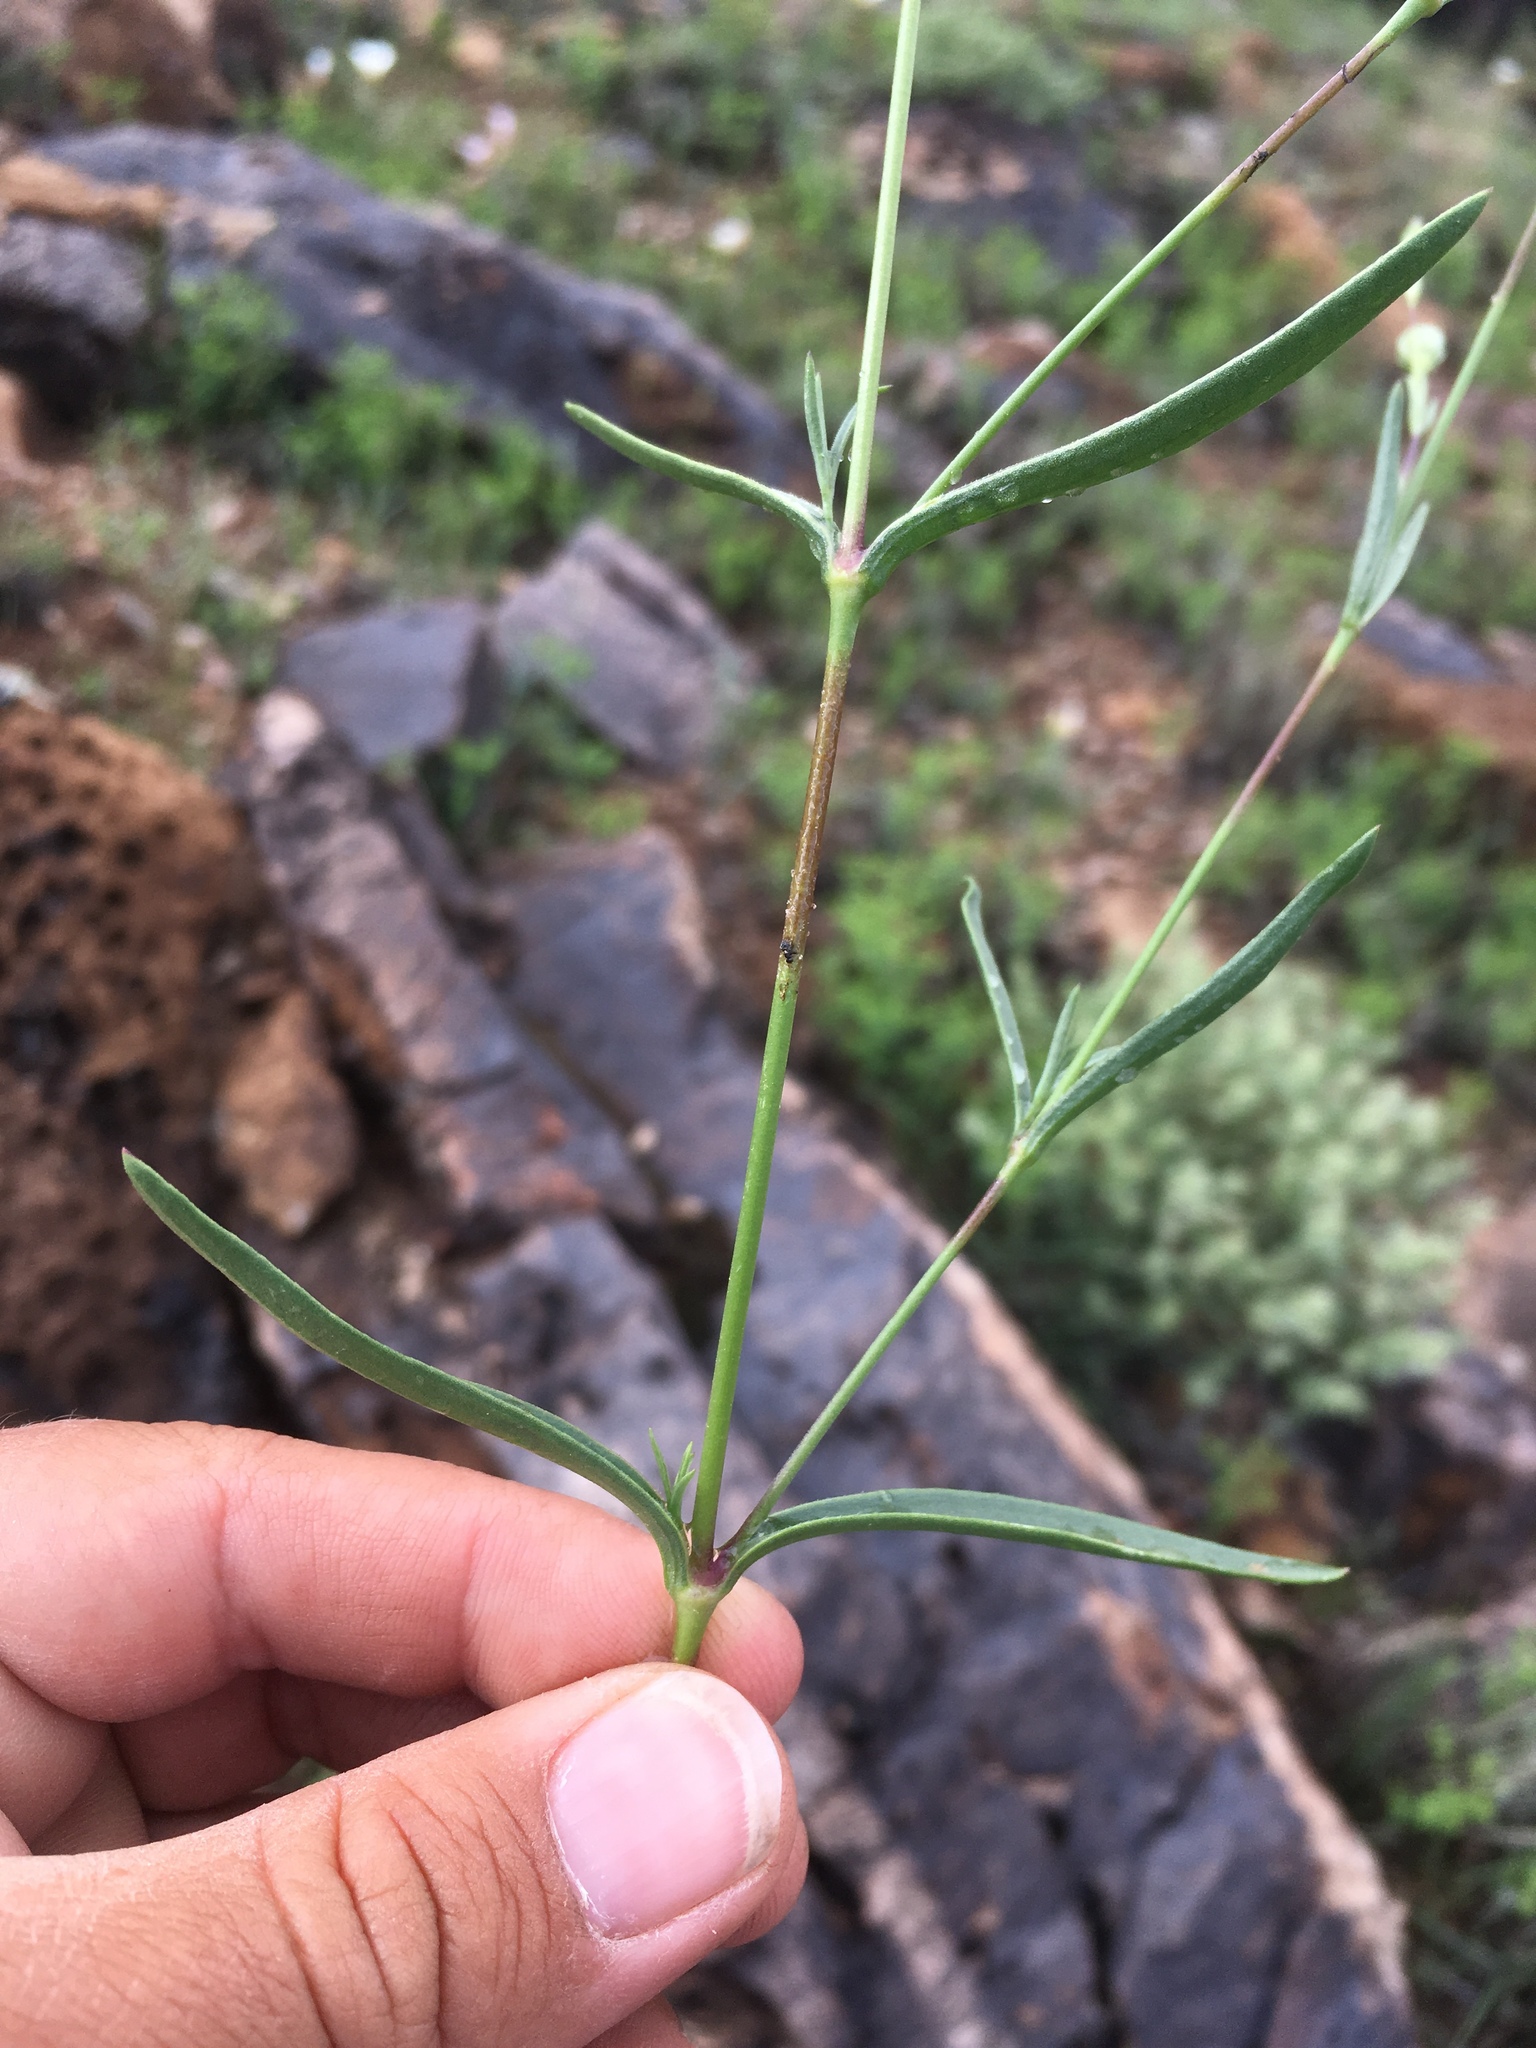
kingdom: Plantae
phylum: Tracheophyta
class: Magnoliopsida
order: Caryophyllales
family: Caryophyllaceae
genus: Silene
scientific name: Silene antirrhina
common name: Sleepy catchfly
